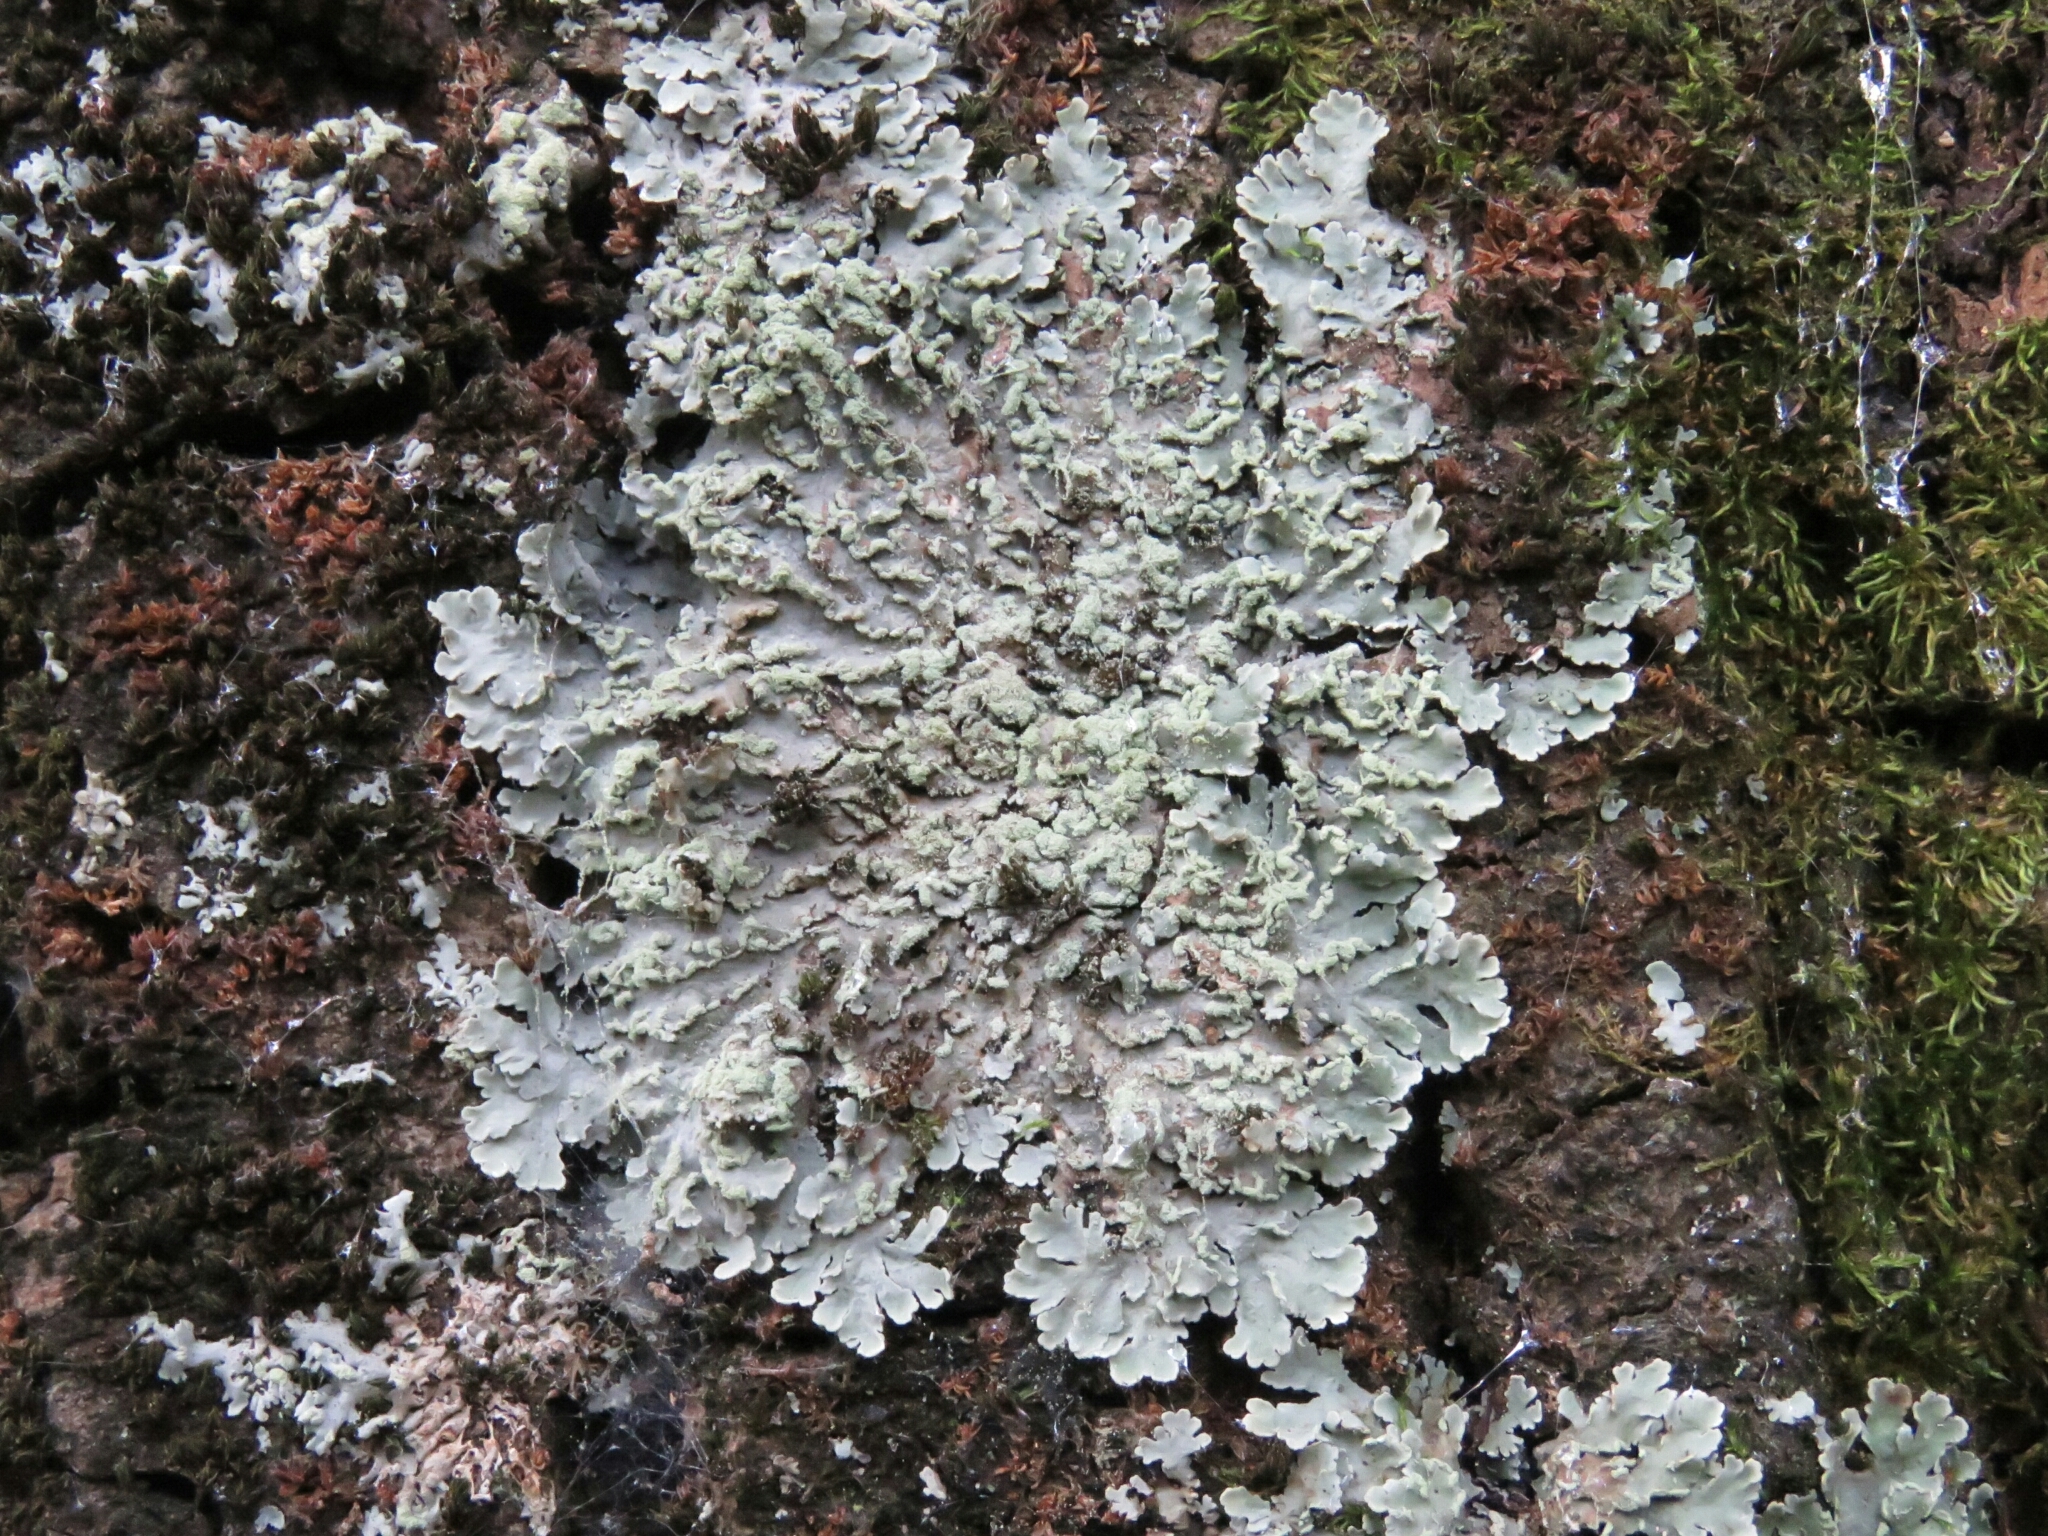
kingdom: Fungi
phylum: Ascomycota
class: Lecanoromycetes
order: Lecanorales
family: Parmeliaceae
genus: Flavopunctelia
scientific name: Flavopunctelia flaventior
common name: Speckled greenshield
